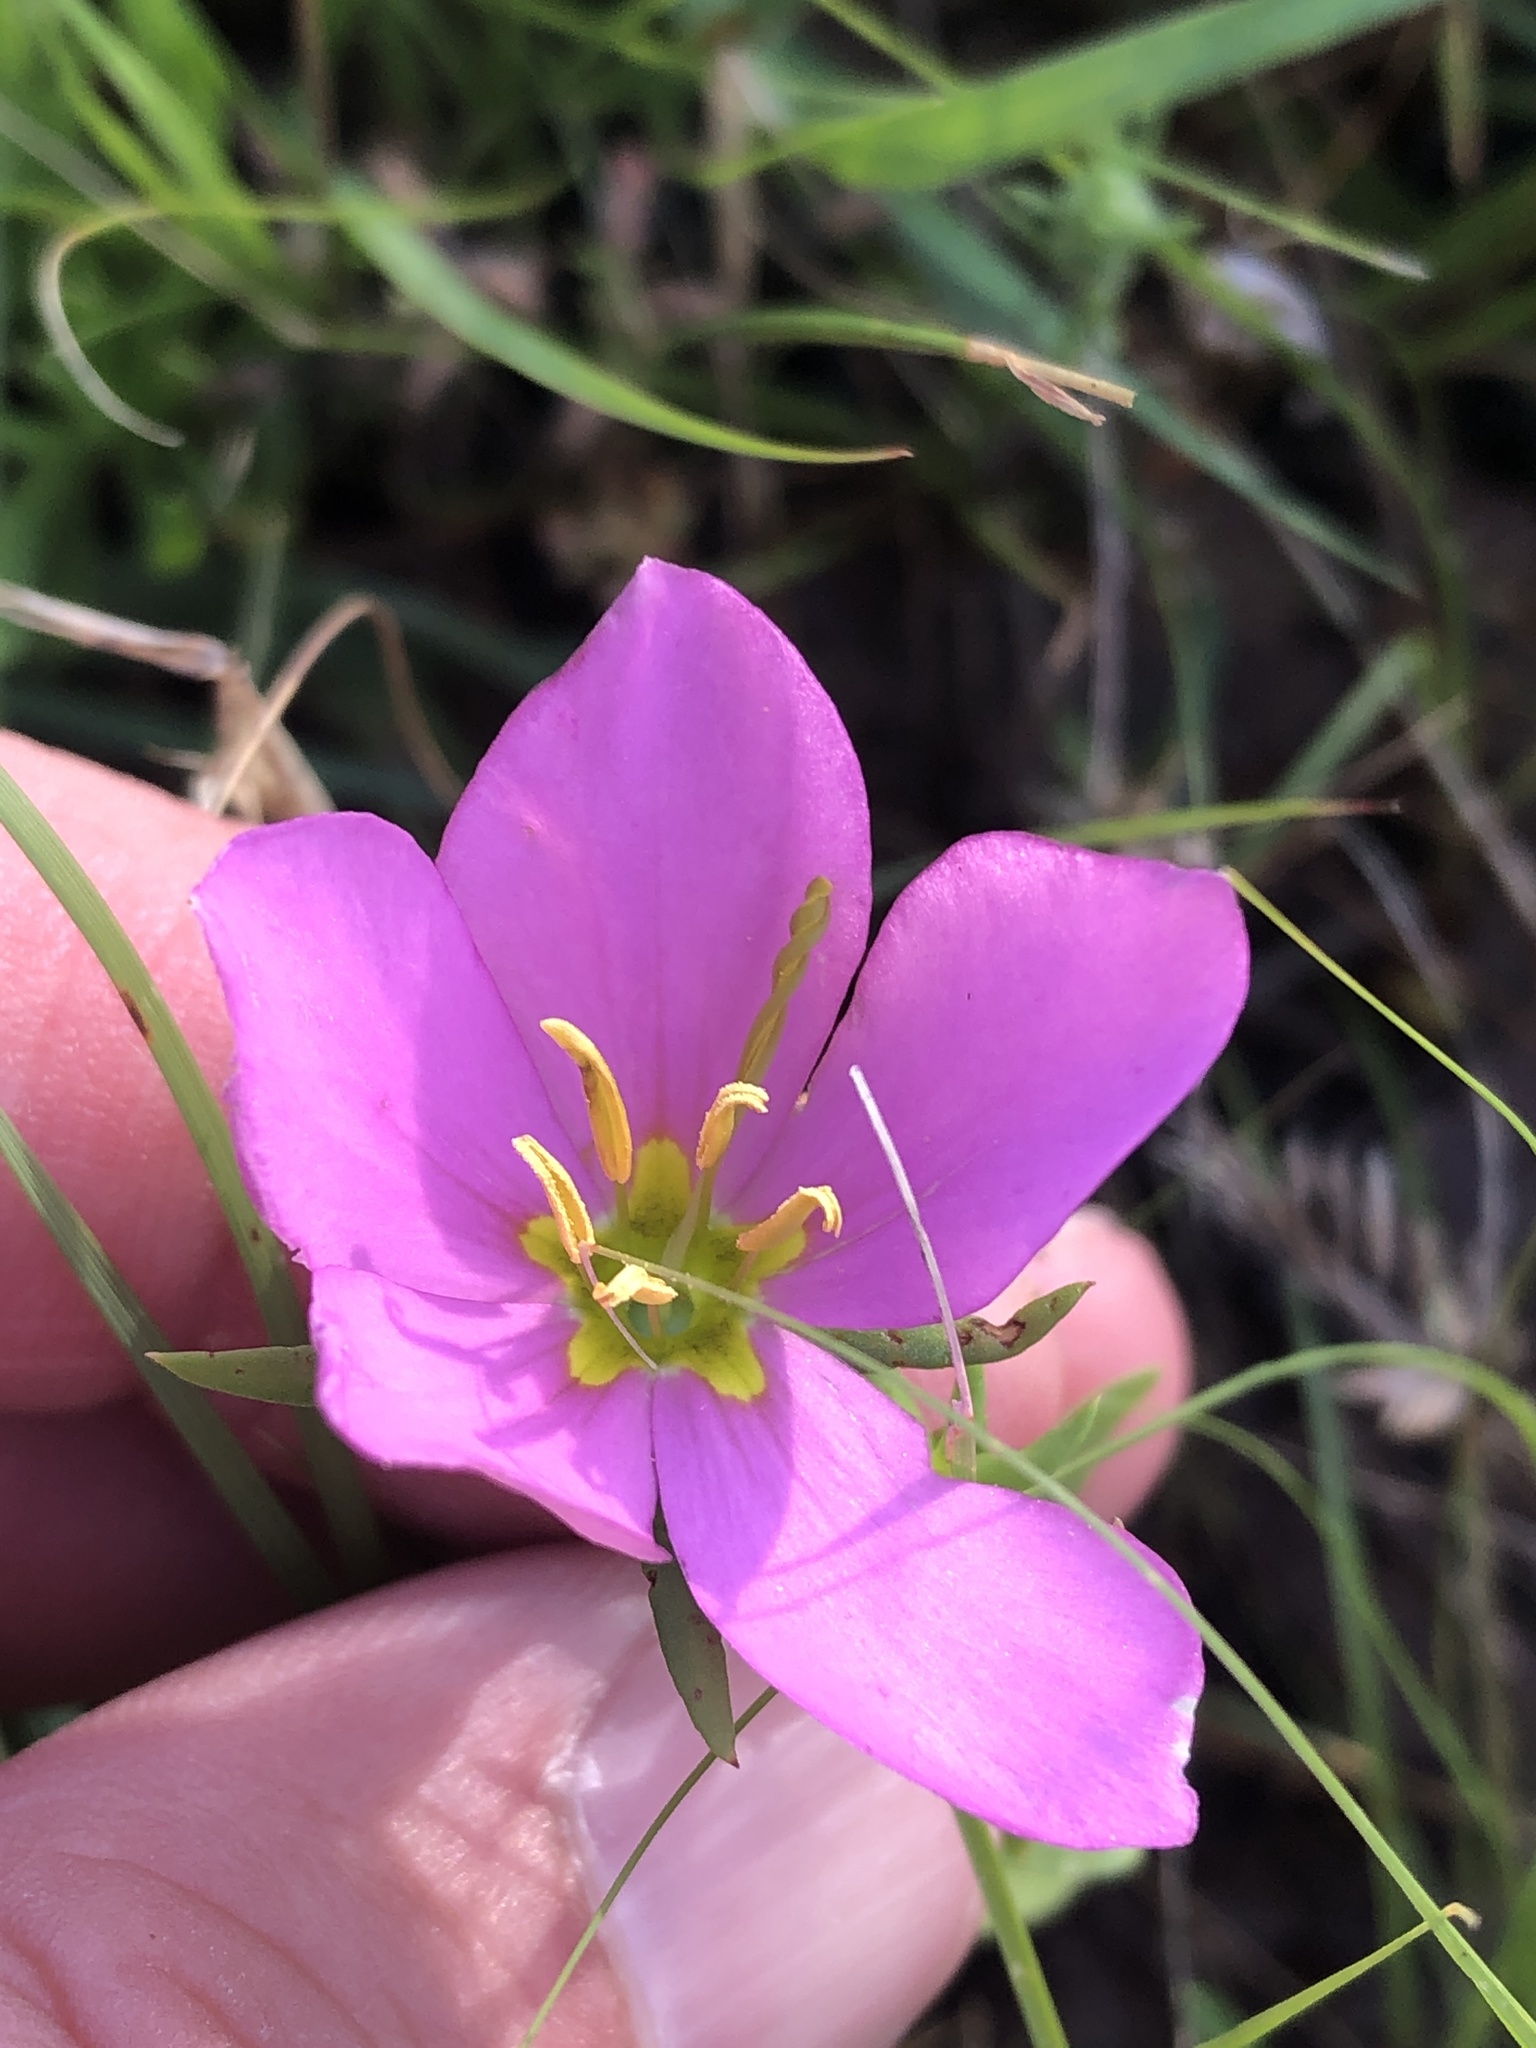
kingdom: Plantae
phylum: Tracheophyta
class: Magnoliopsida
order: Gentianales
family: Gentianaceae
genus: Sabatia
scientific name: Sabatia campestris
